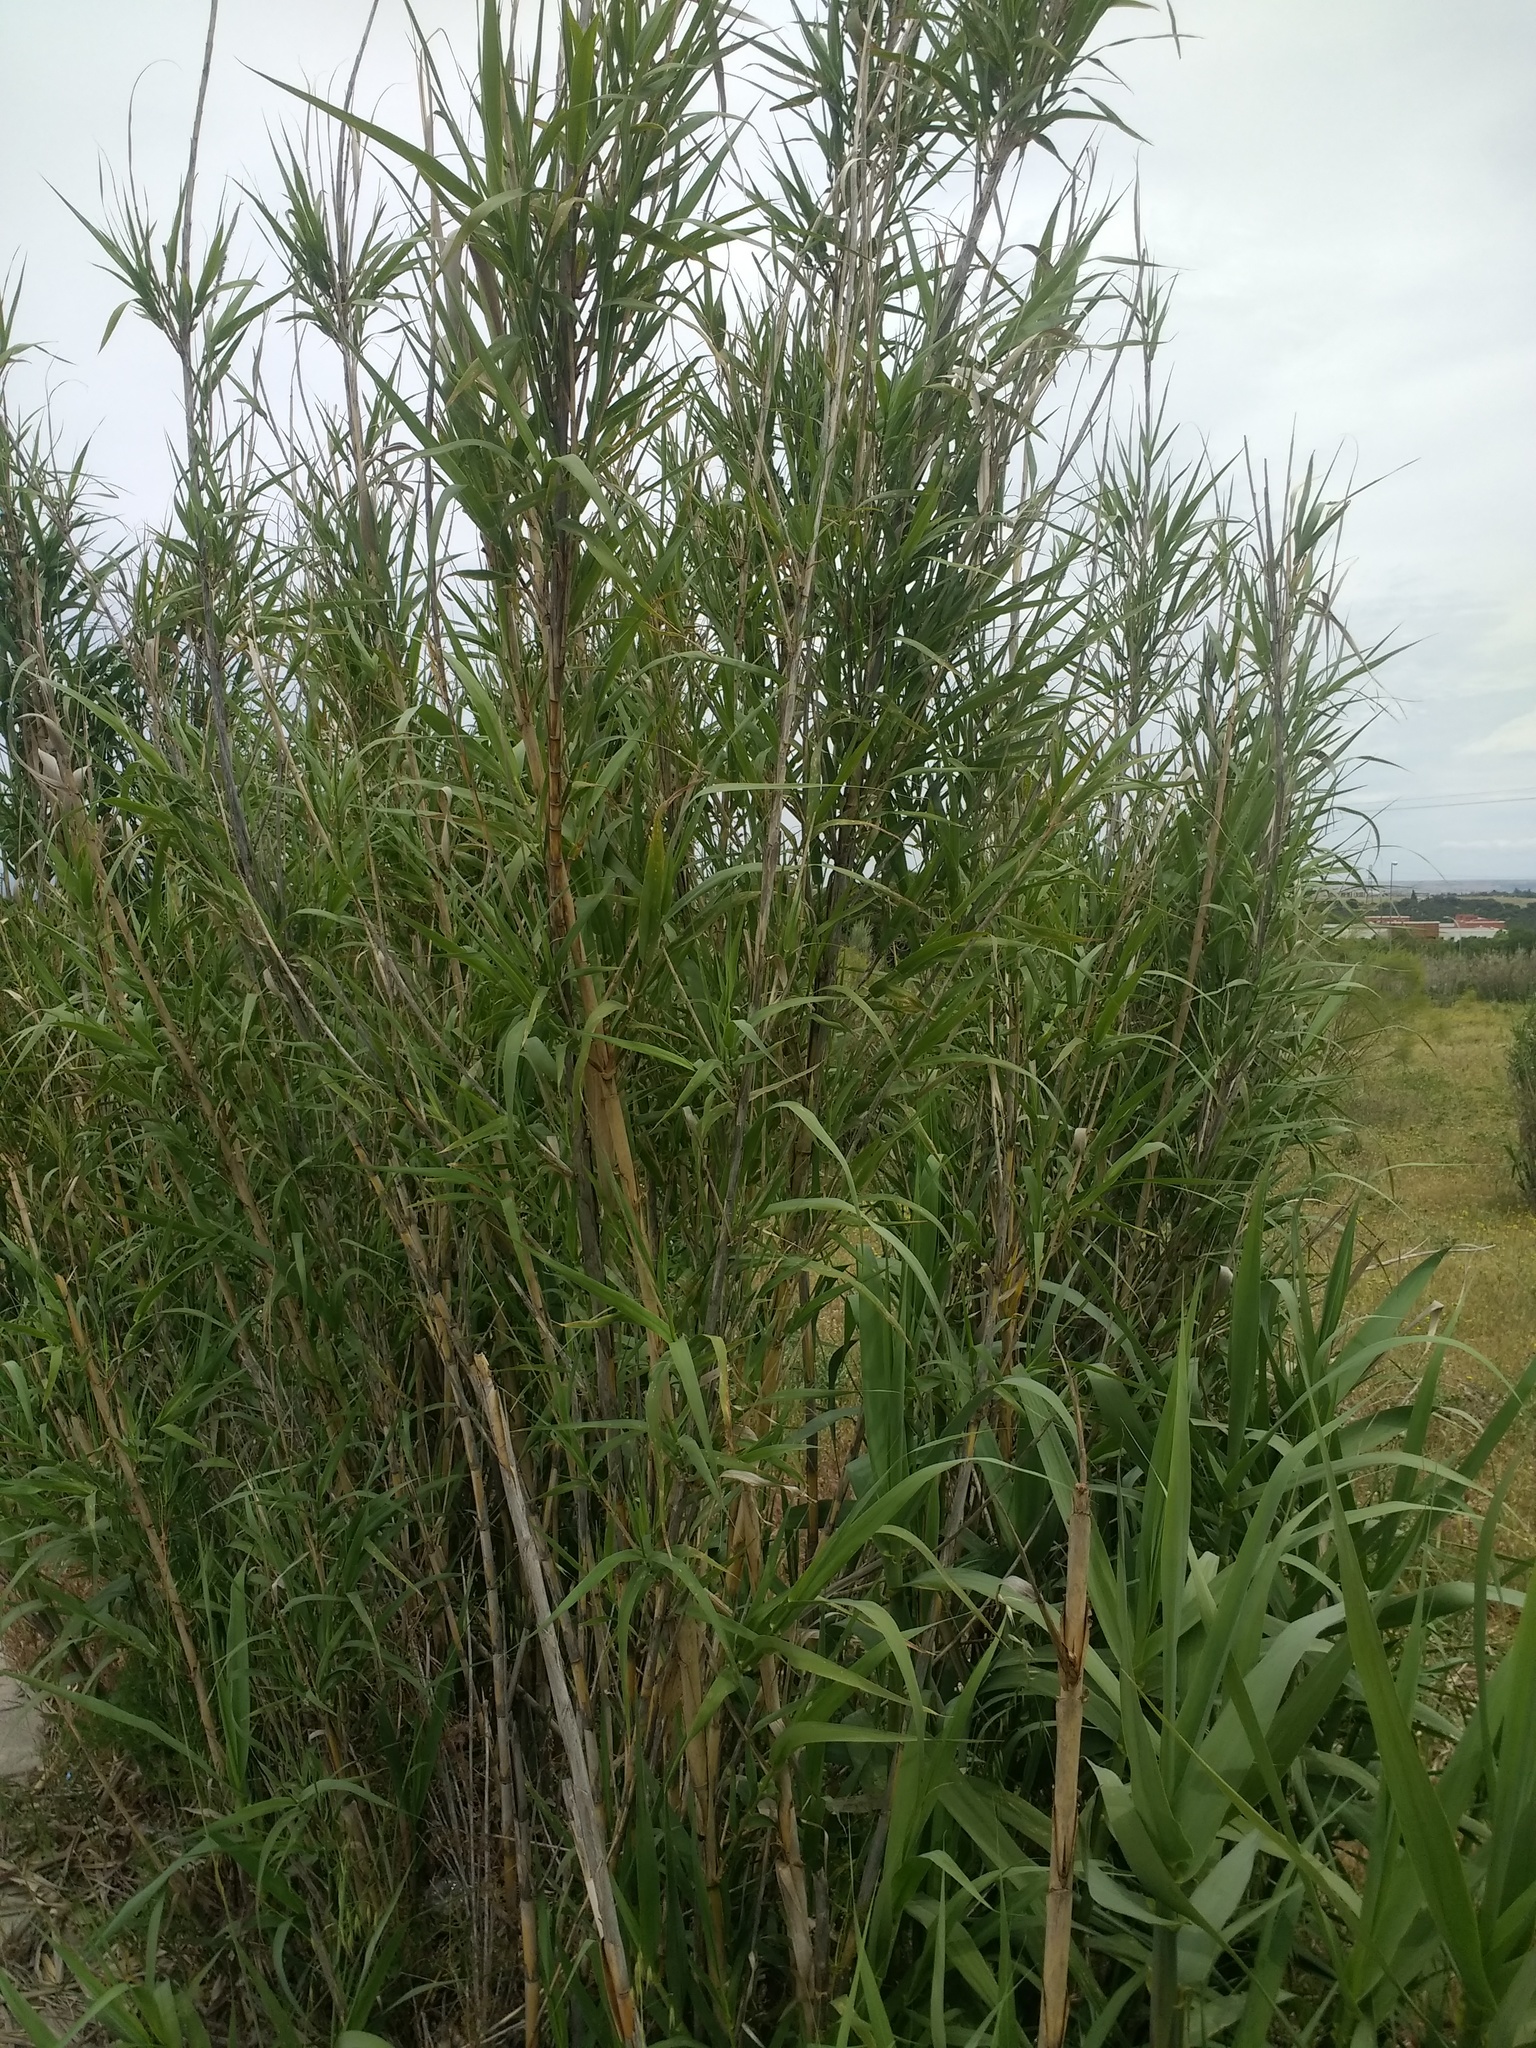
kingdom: Plantae
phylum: Tracheophyta
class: Liliopsida
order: Poales
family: Poaceae
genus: Arundo
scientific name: Arundo donax
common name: Giant reed
